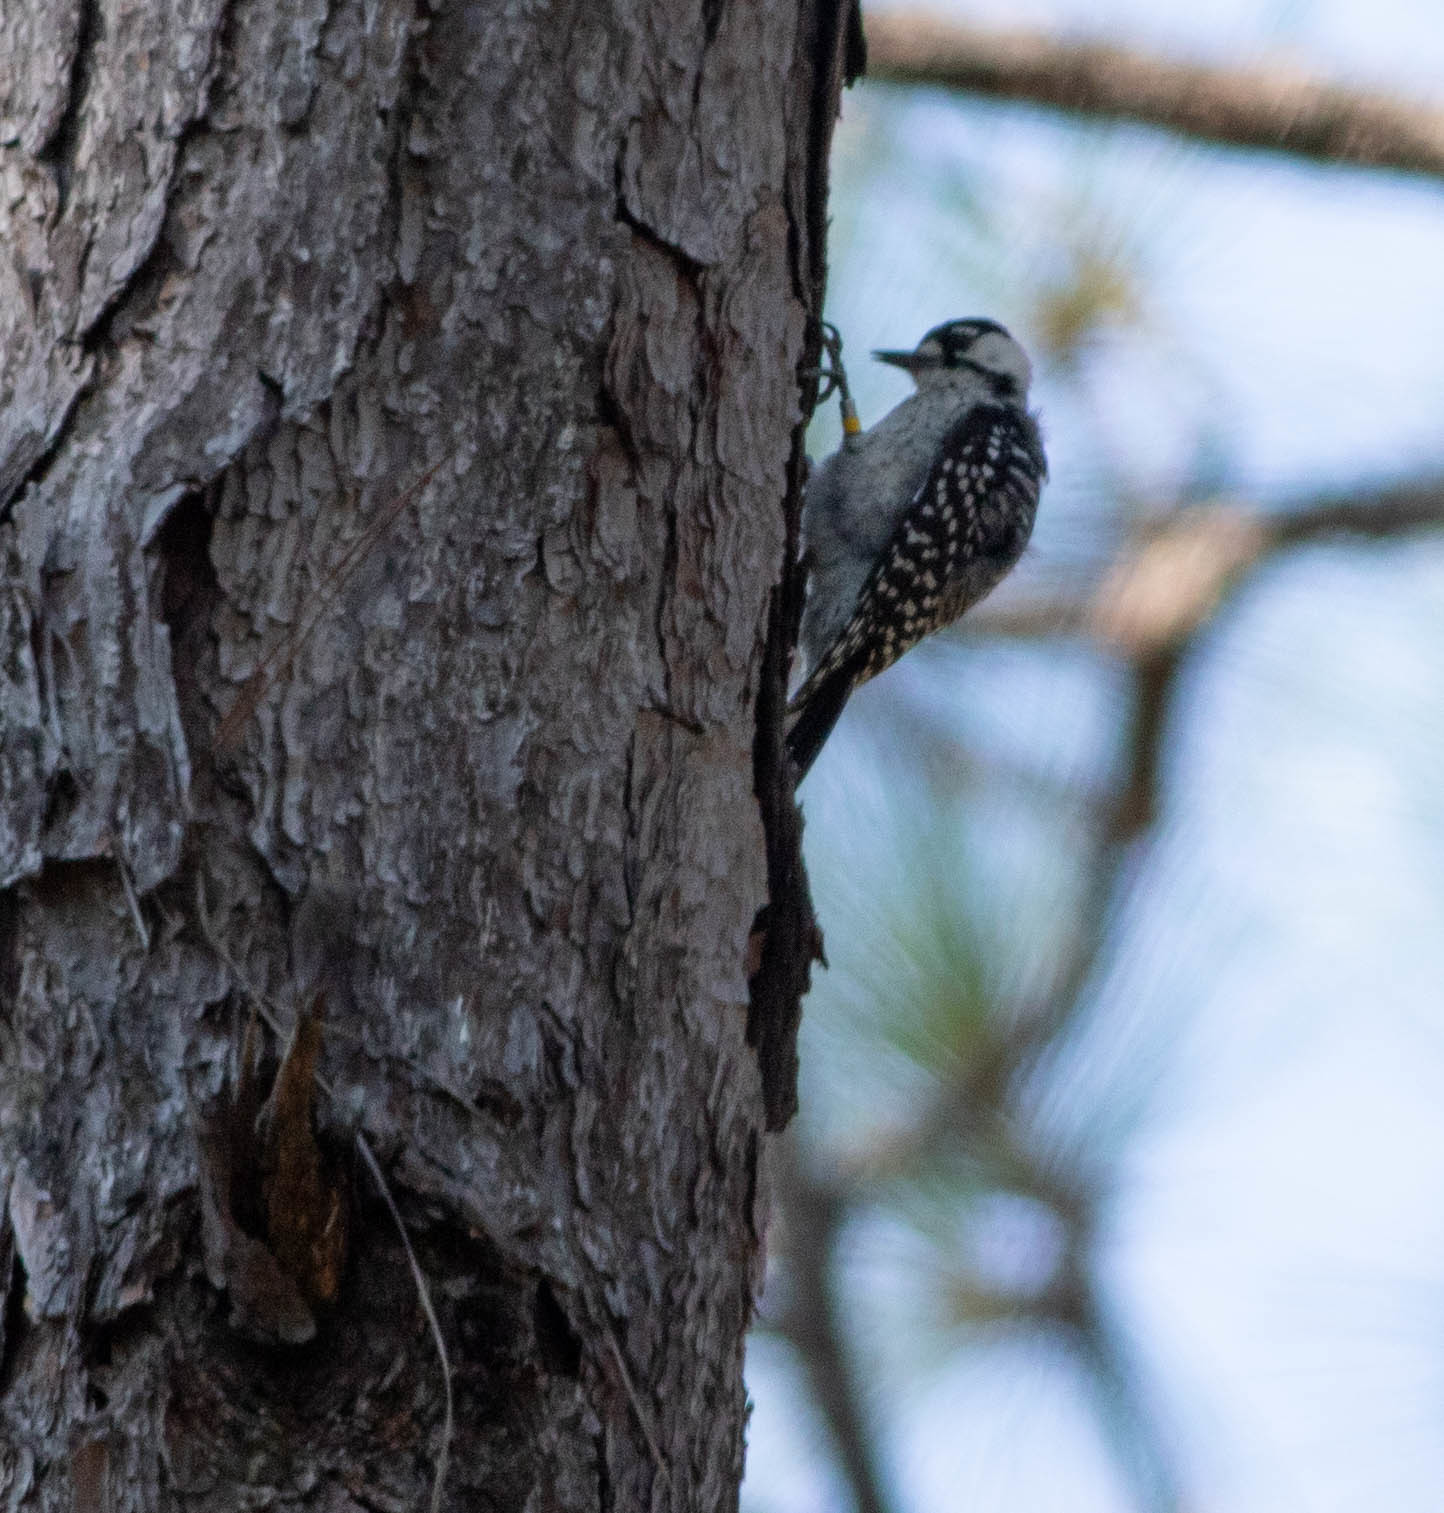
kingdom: Animalia
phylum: Chordata
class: Aves
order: Piciformes
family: Picidae
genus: Leuconotopicus
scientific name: Leuconotopicus borealis
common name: Red-cockaded woodpecker
